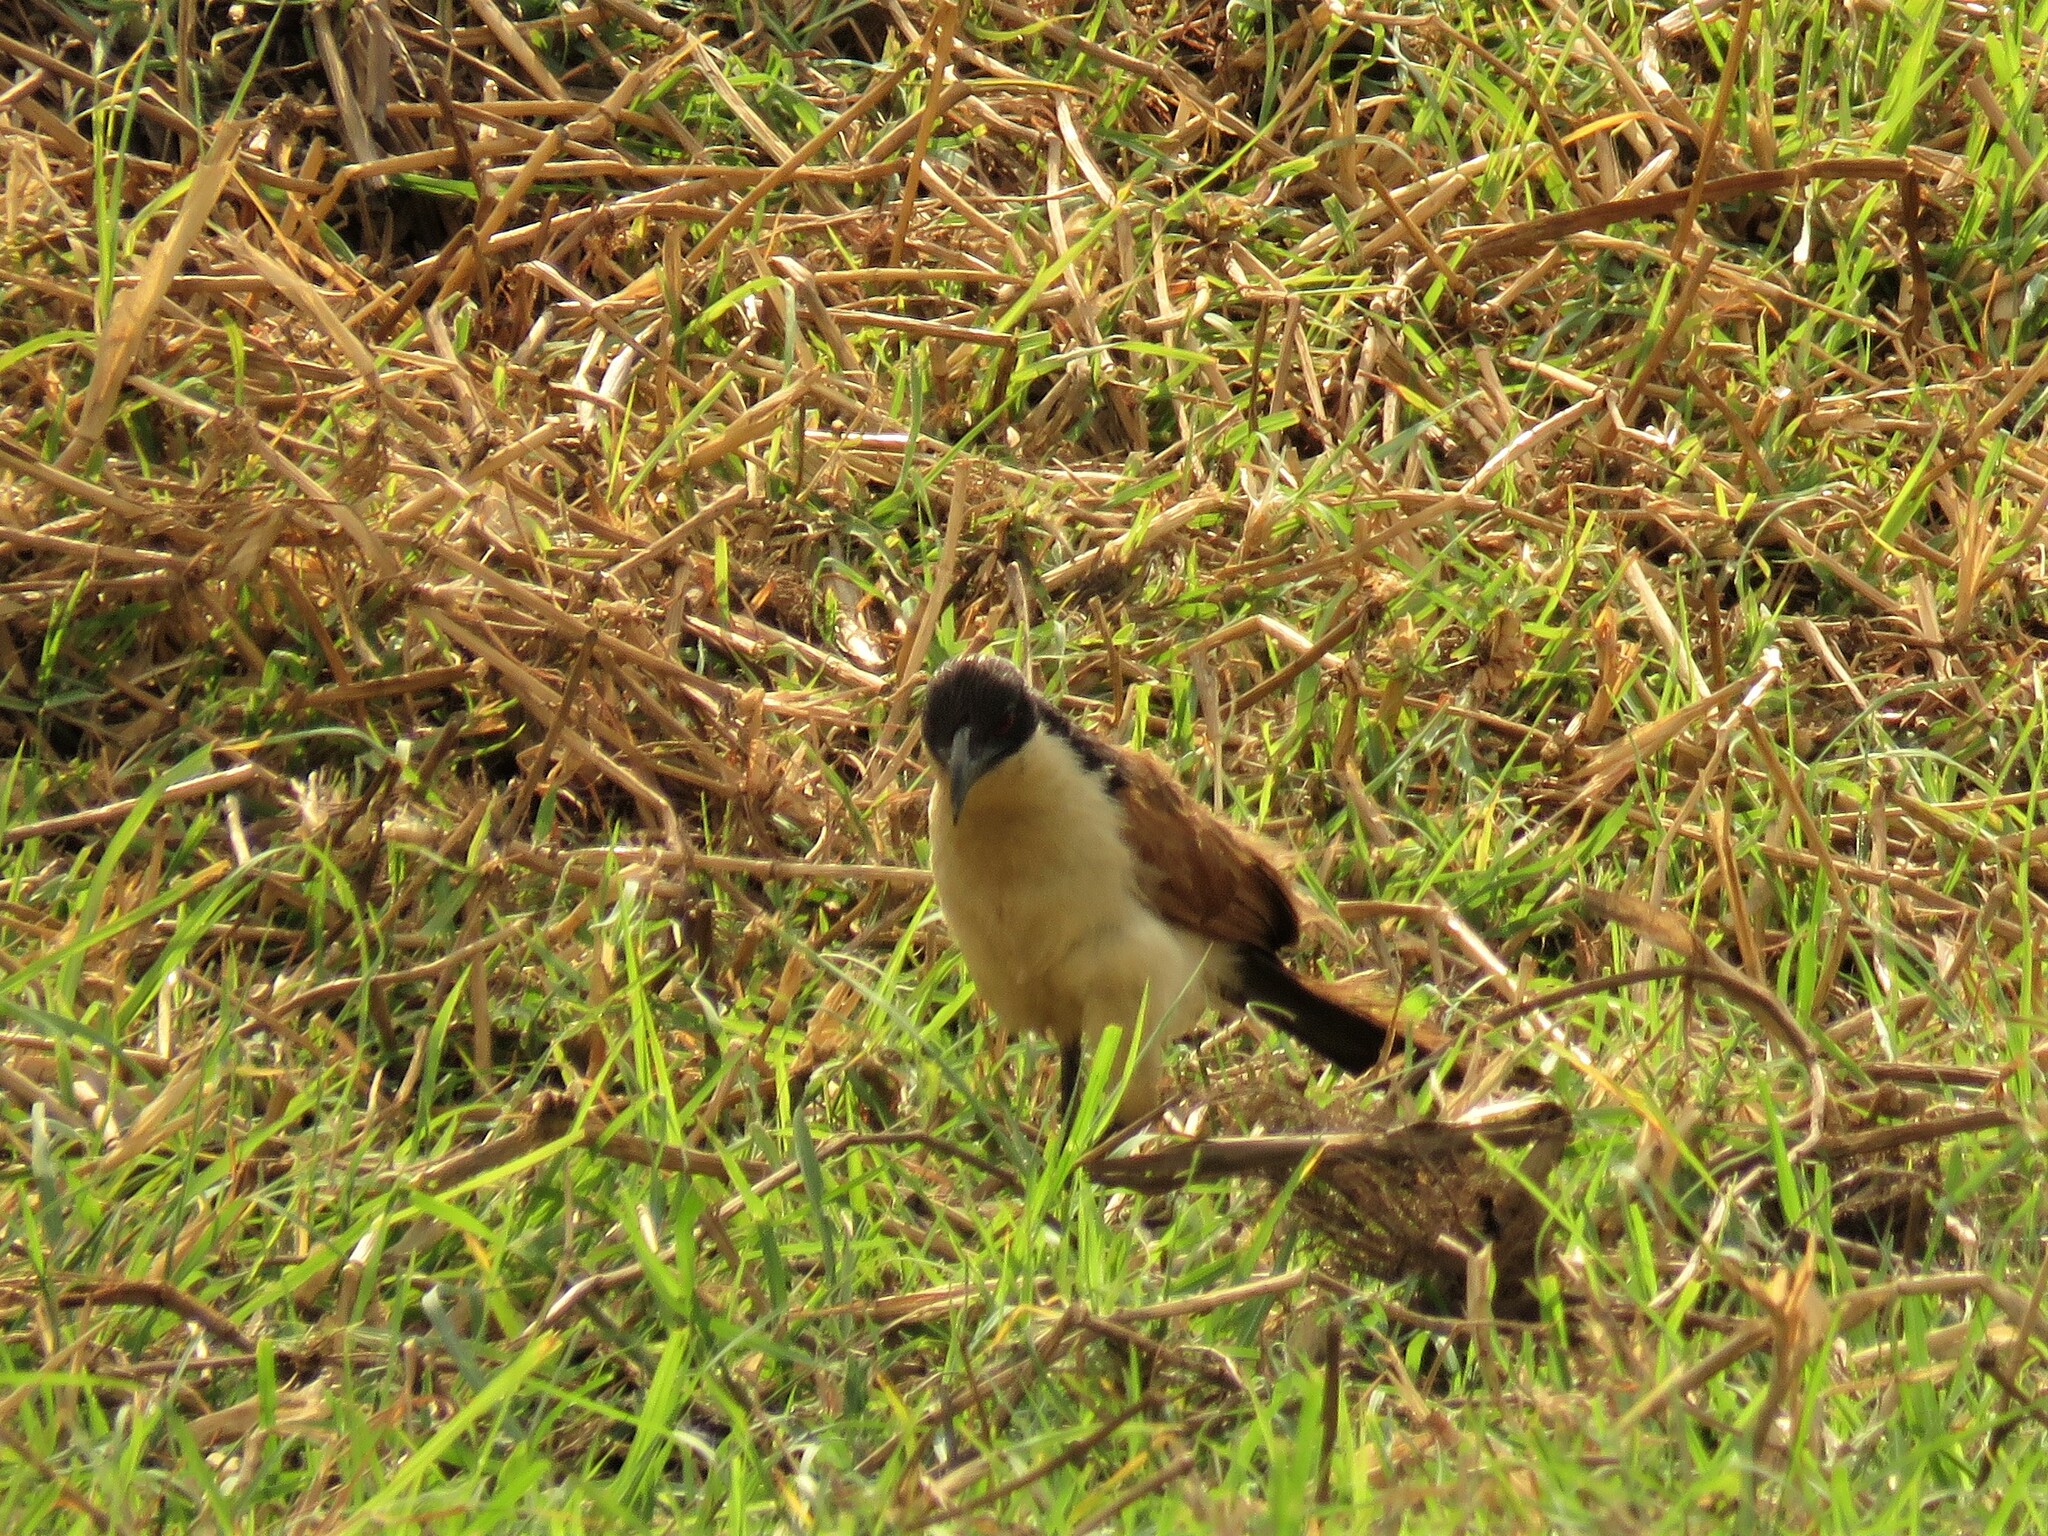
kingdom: Animalia
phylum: Chordata
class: Aves
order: Cuculiformes
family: Cuculidae
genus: Centropus
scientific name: Centropus cupreicaudus
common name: Coppery-tailed coucal
